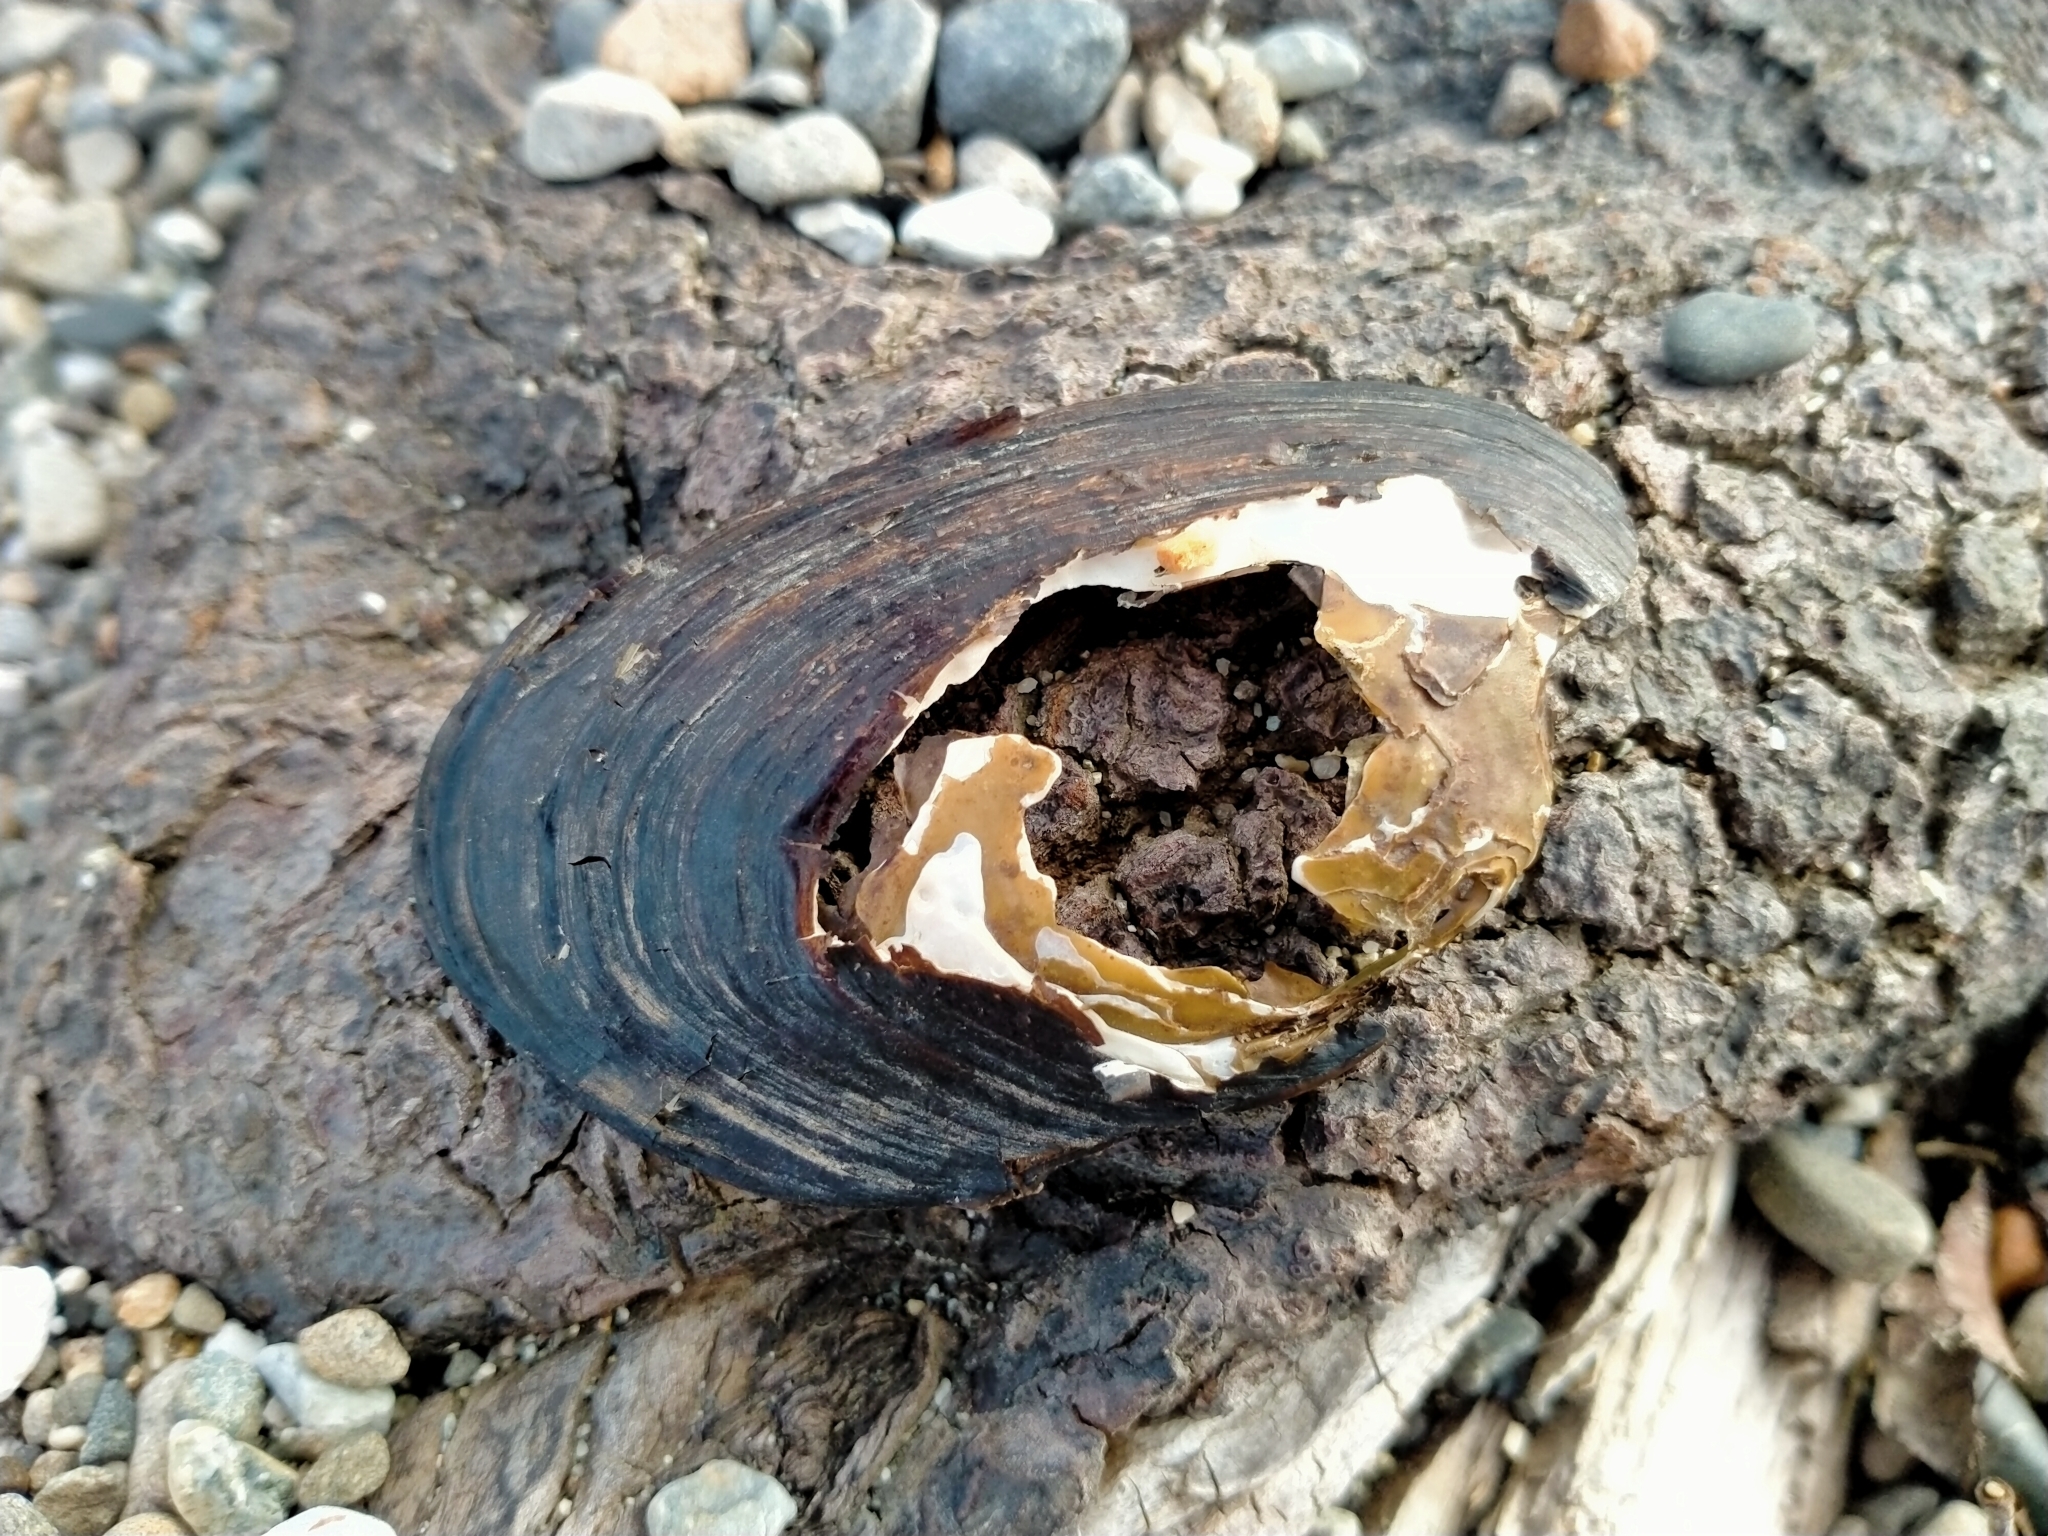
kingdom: Animalia
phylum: Mollusca
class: Bivalvia
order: Unionida
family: Hyriidae
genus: Echyridella
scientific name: Echyridella menziesii
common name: New zealand freshwater mussel
